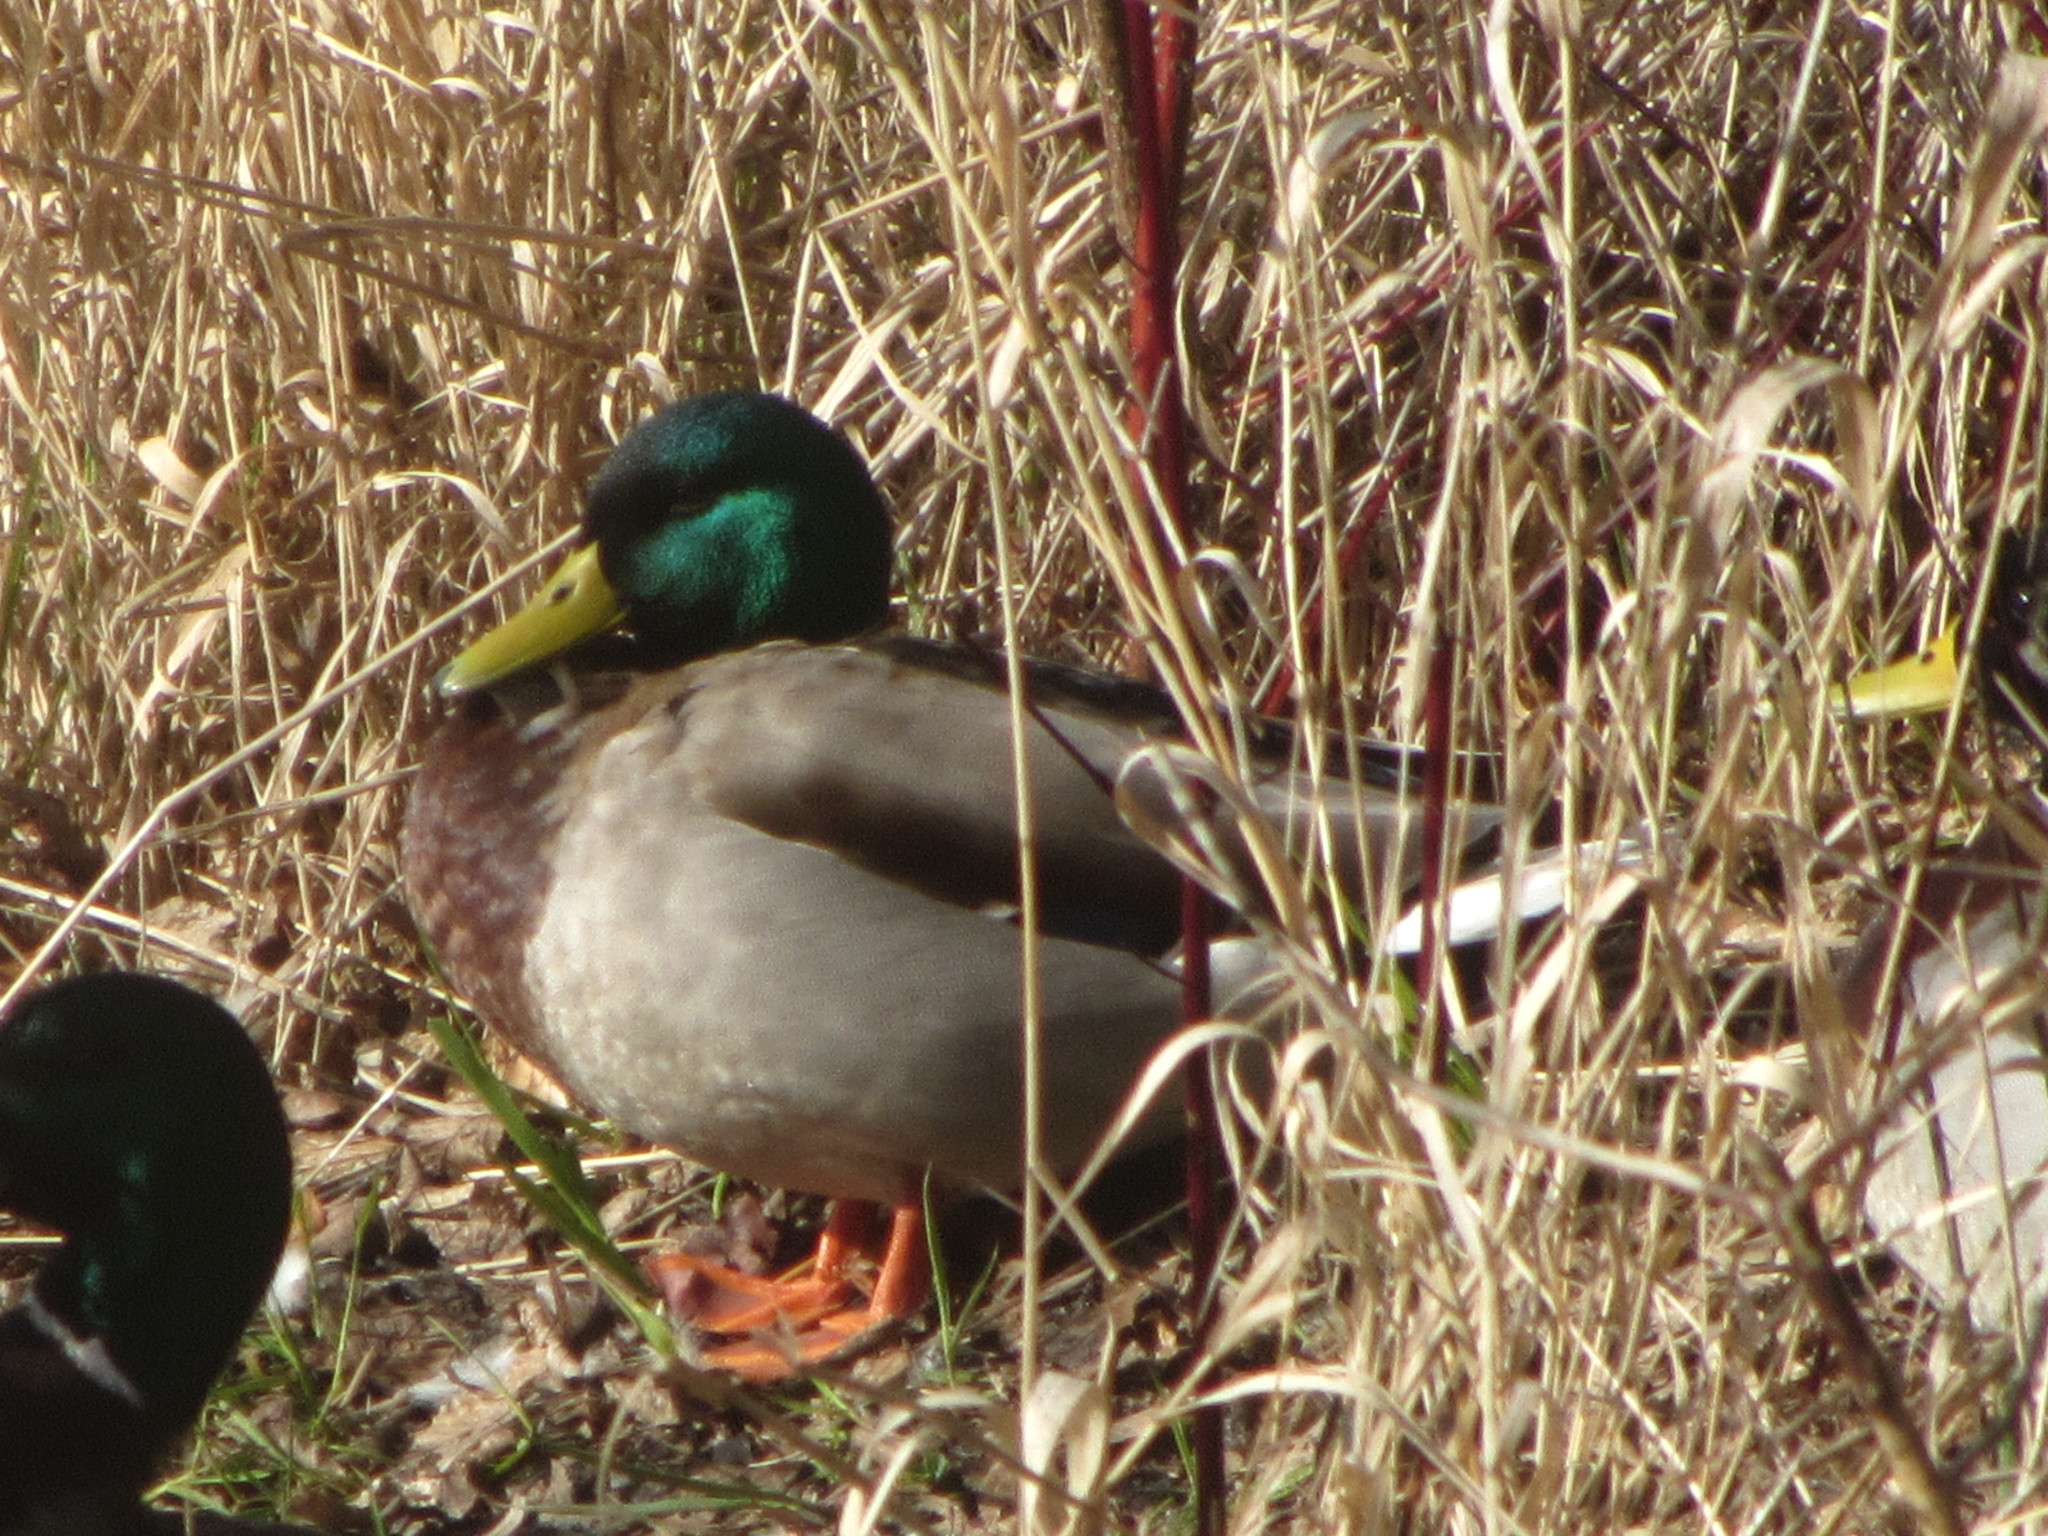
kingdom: Animalia
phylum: Chordata
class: Aves
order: Anseriformes
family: Anatidae
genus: Anas
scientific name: Anas platyrhynchos
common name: Mallard
